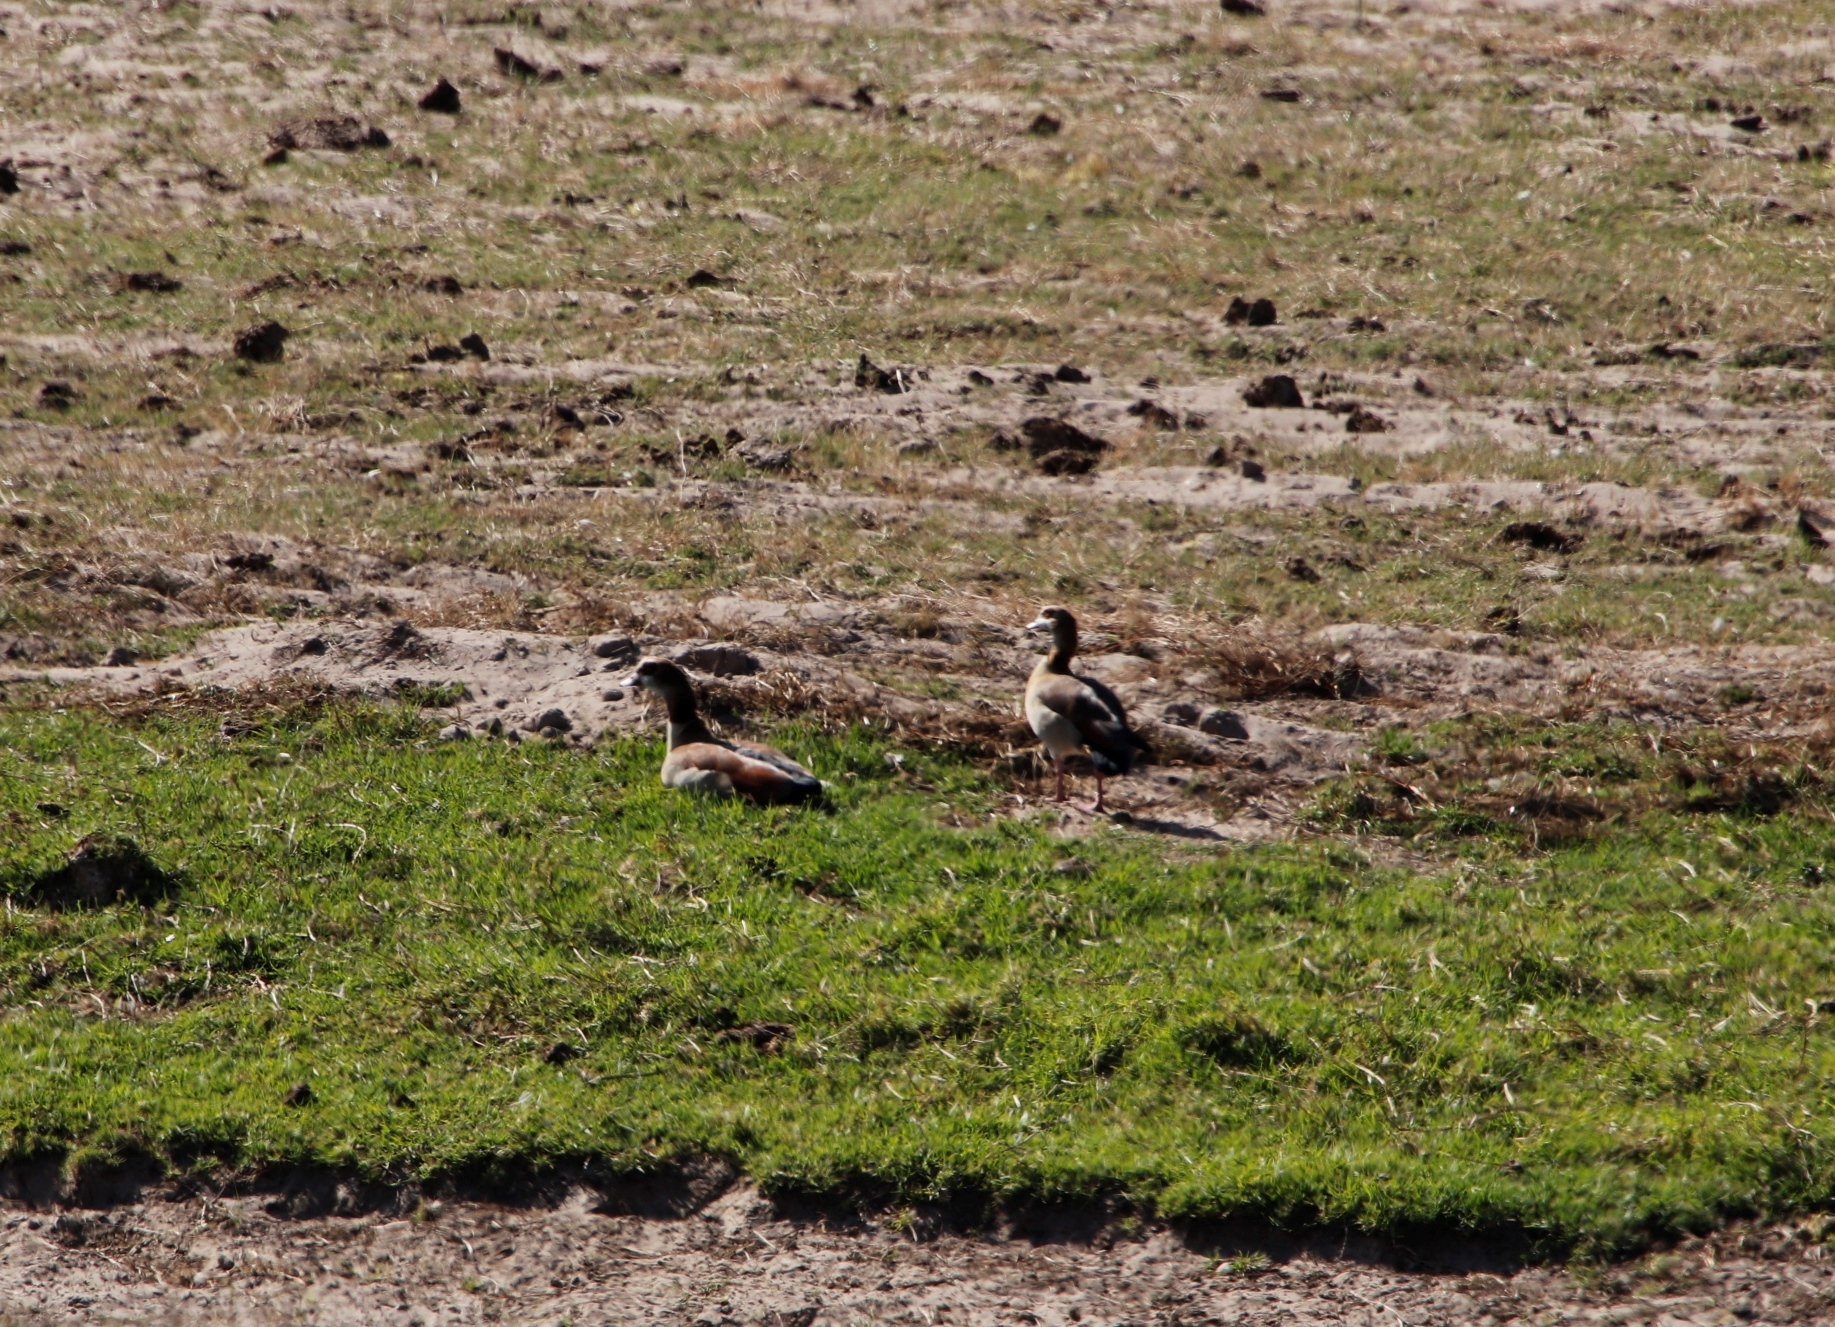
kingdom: Animalia
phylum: Chordata
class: Aves
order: Anseriformes
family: Anatidae
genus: Alopochen
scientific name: Alopochen aegyptiaca
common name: Egyptian goose
